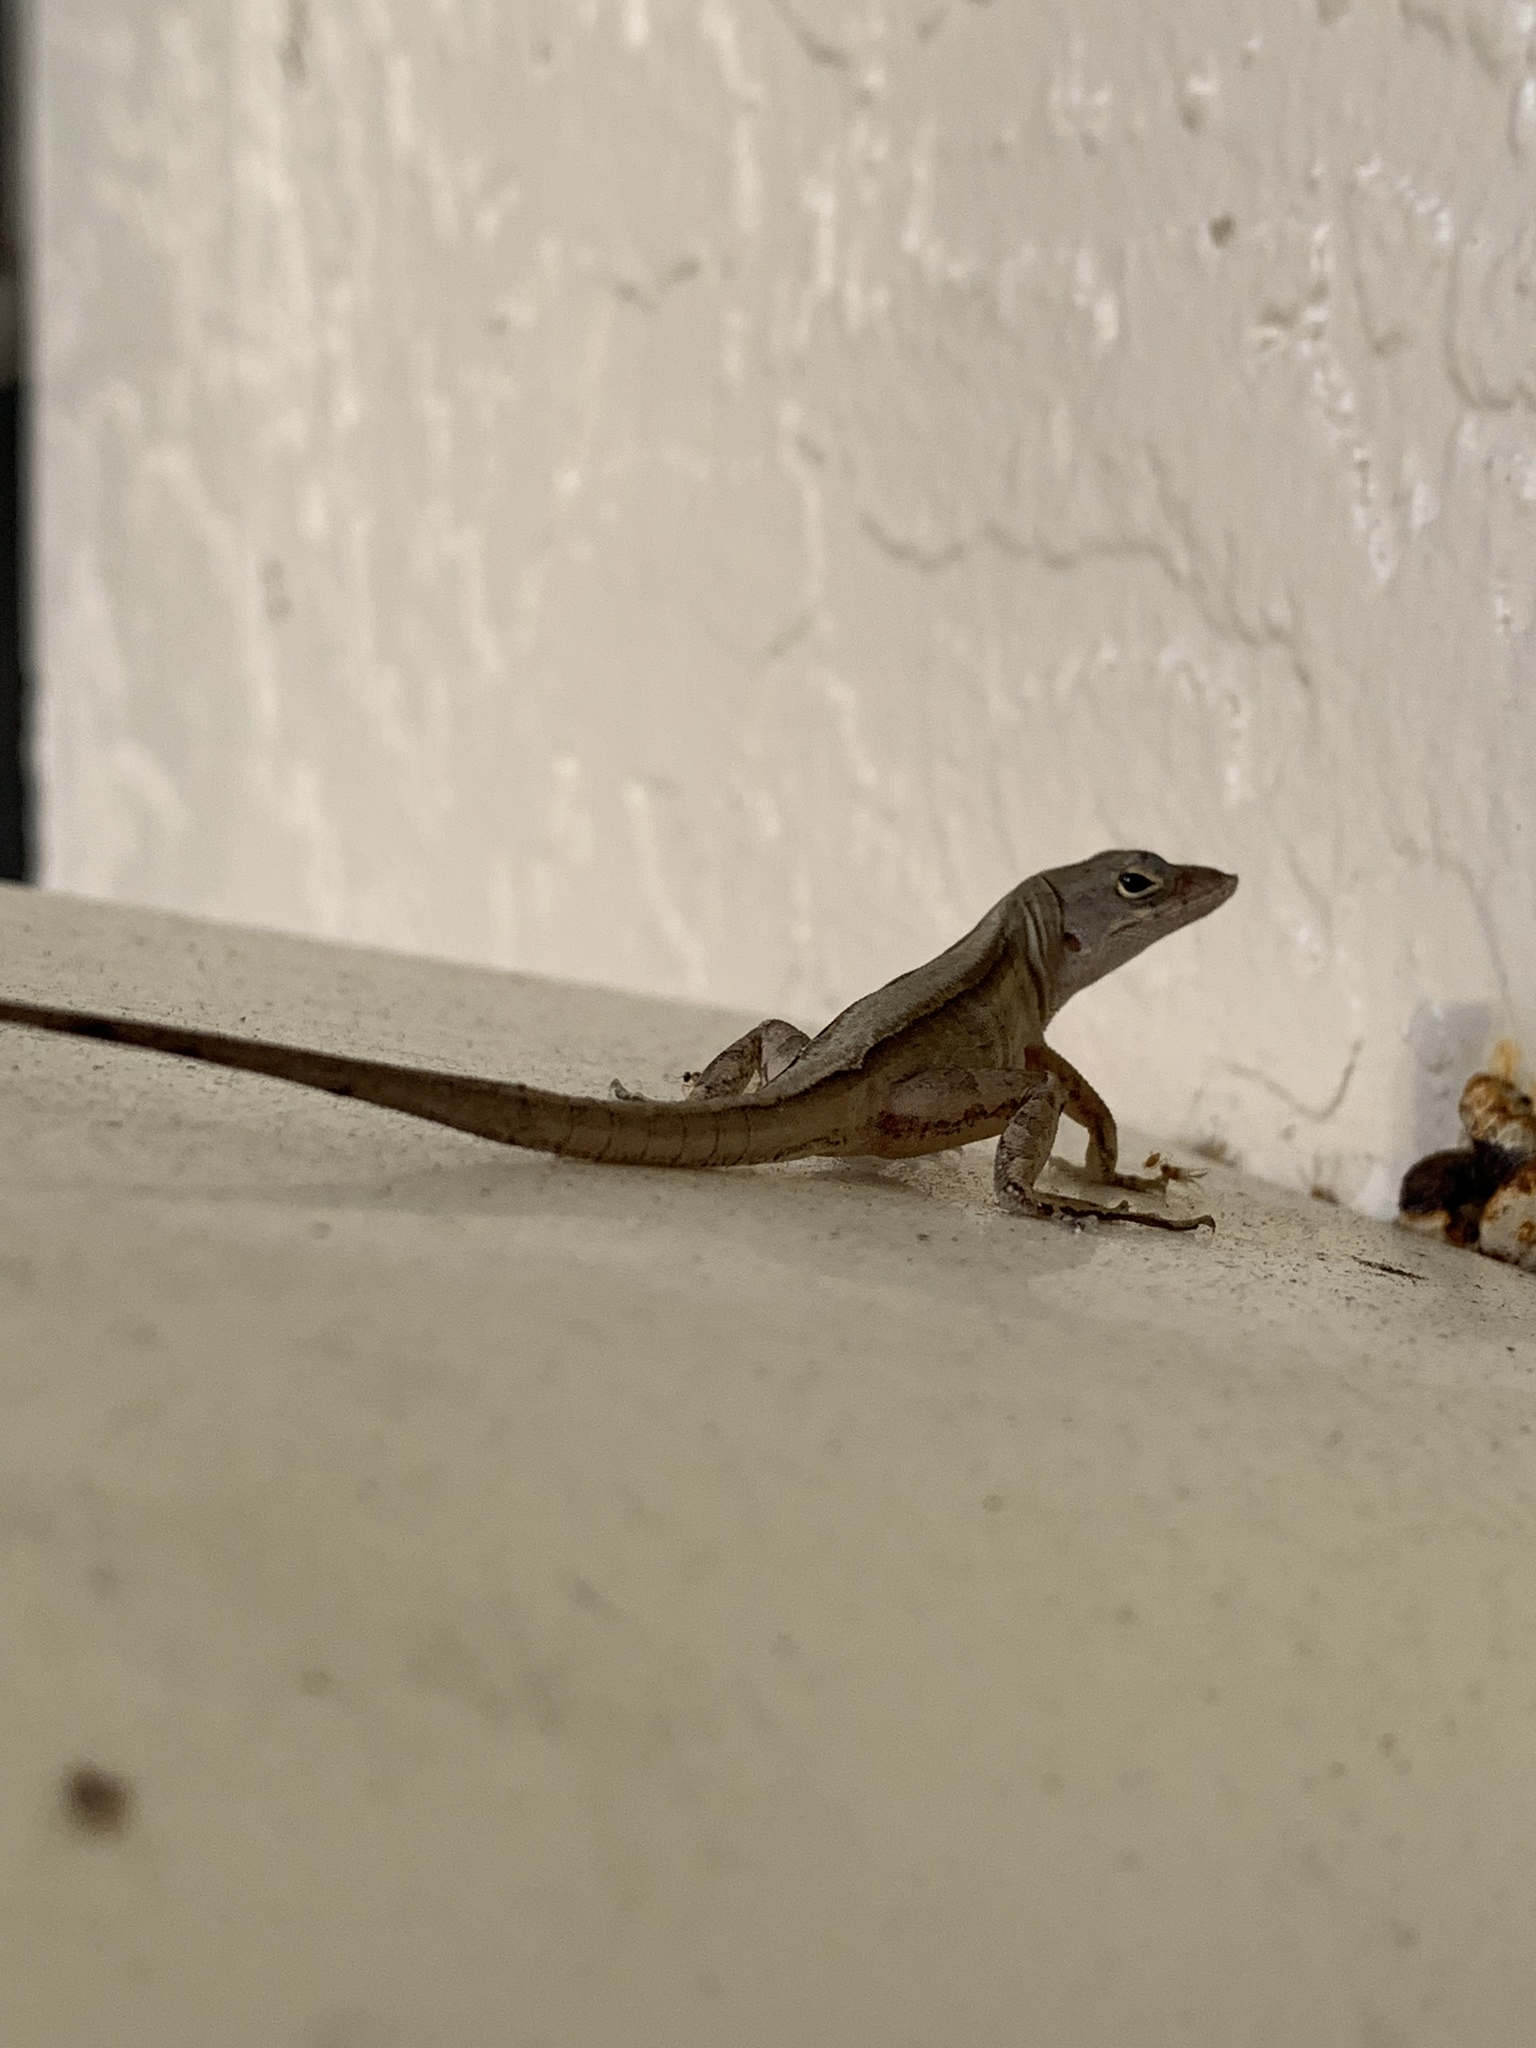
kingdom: Animalia
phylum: Chordata
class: Squamata
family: Dactyloidae
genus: Anolis
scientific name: Anolis sagrei
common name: Brown anole
